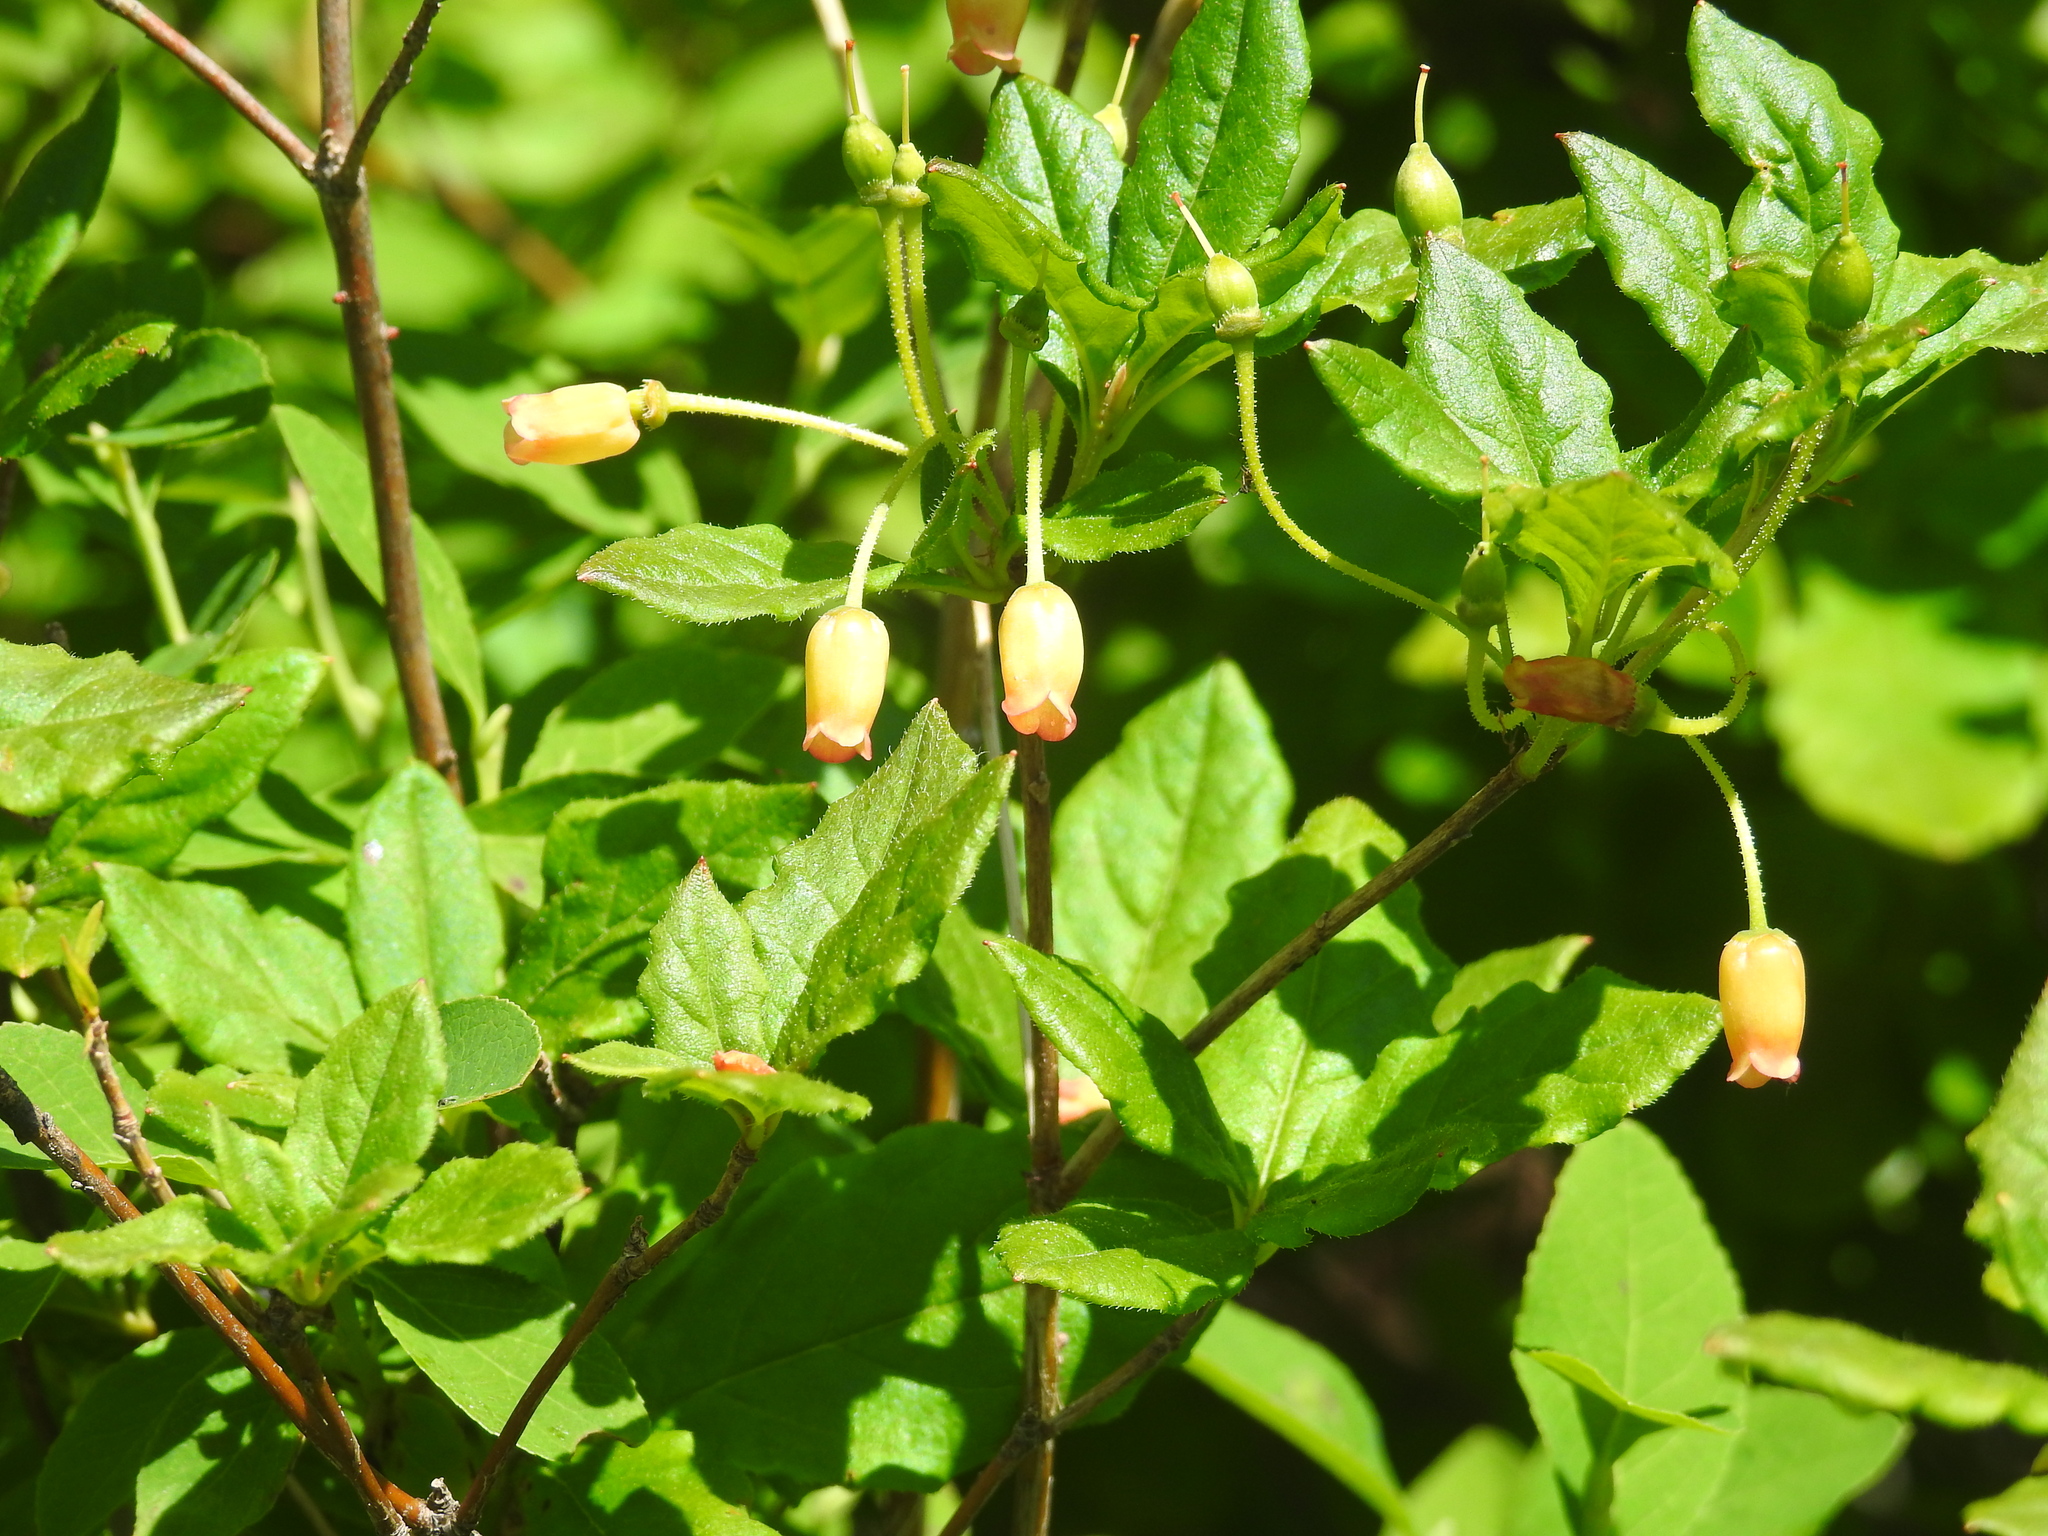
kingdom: Plantae
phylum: Tracheophyta
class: Magnoliopsida
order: Ericales
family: Ericaceae
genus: Rhododendron
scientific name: Rhododendron menziesii
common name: Pacific menziesia
